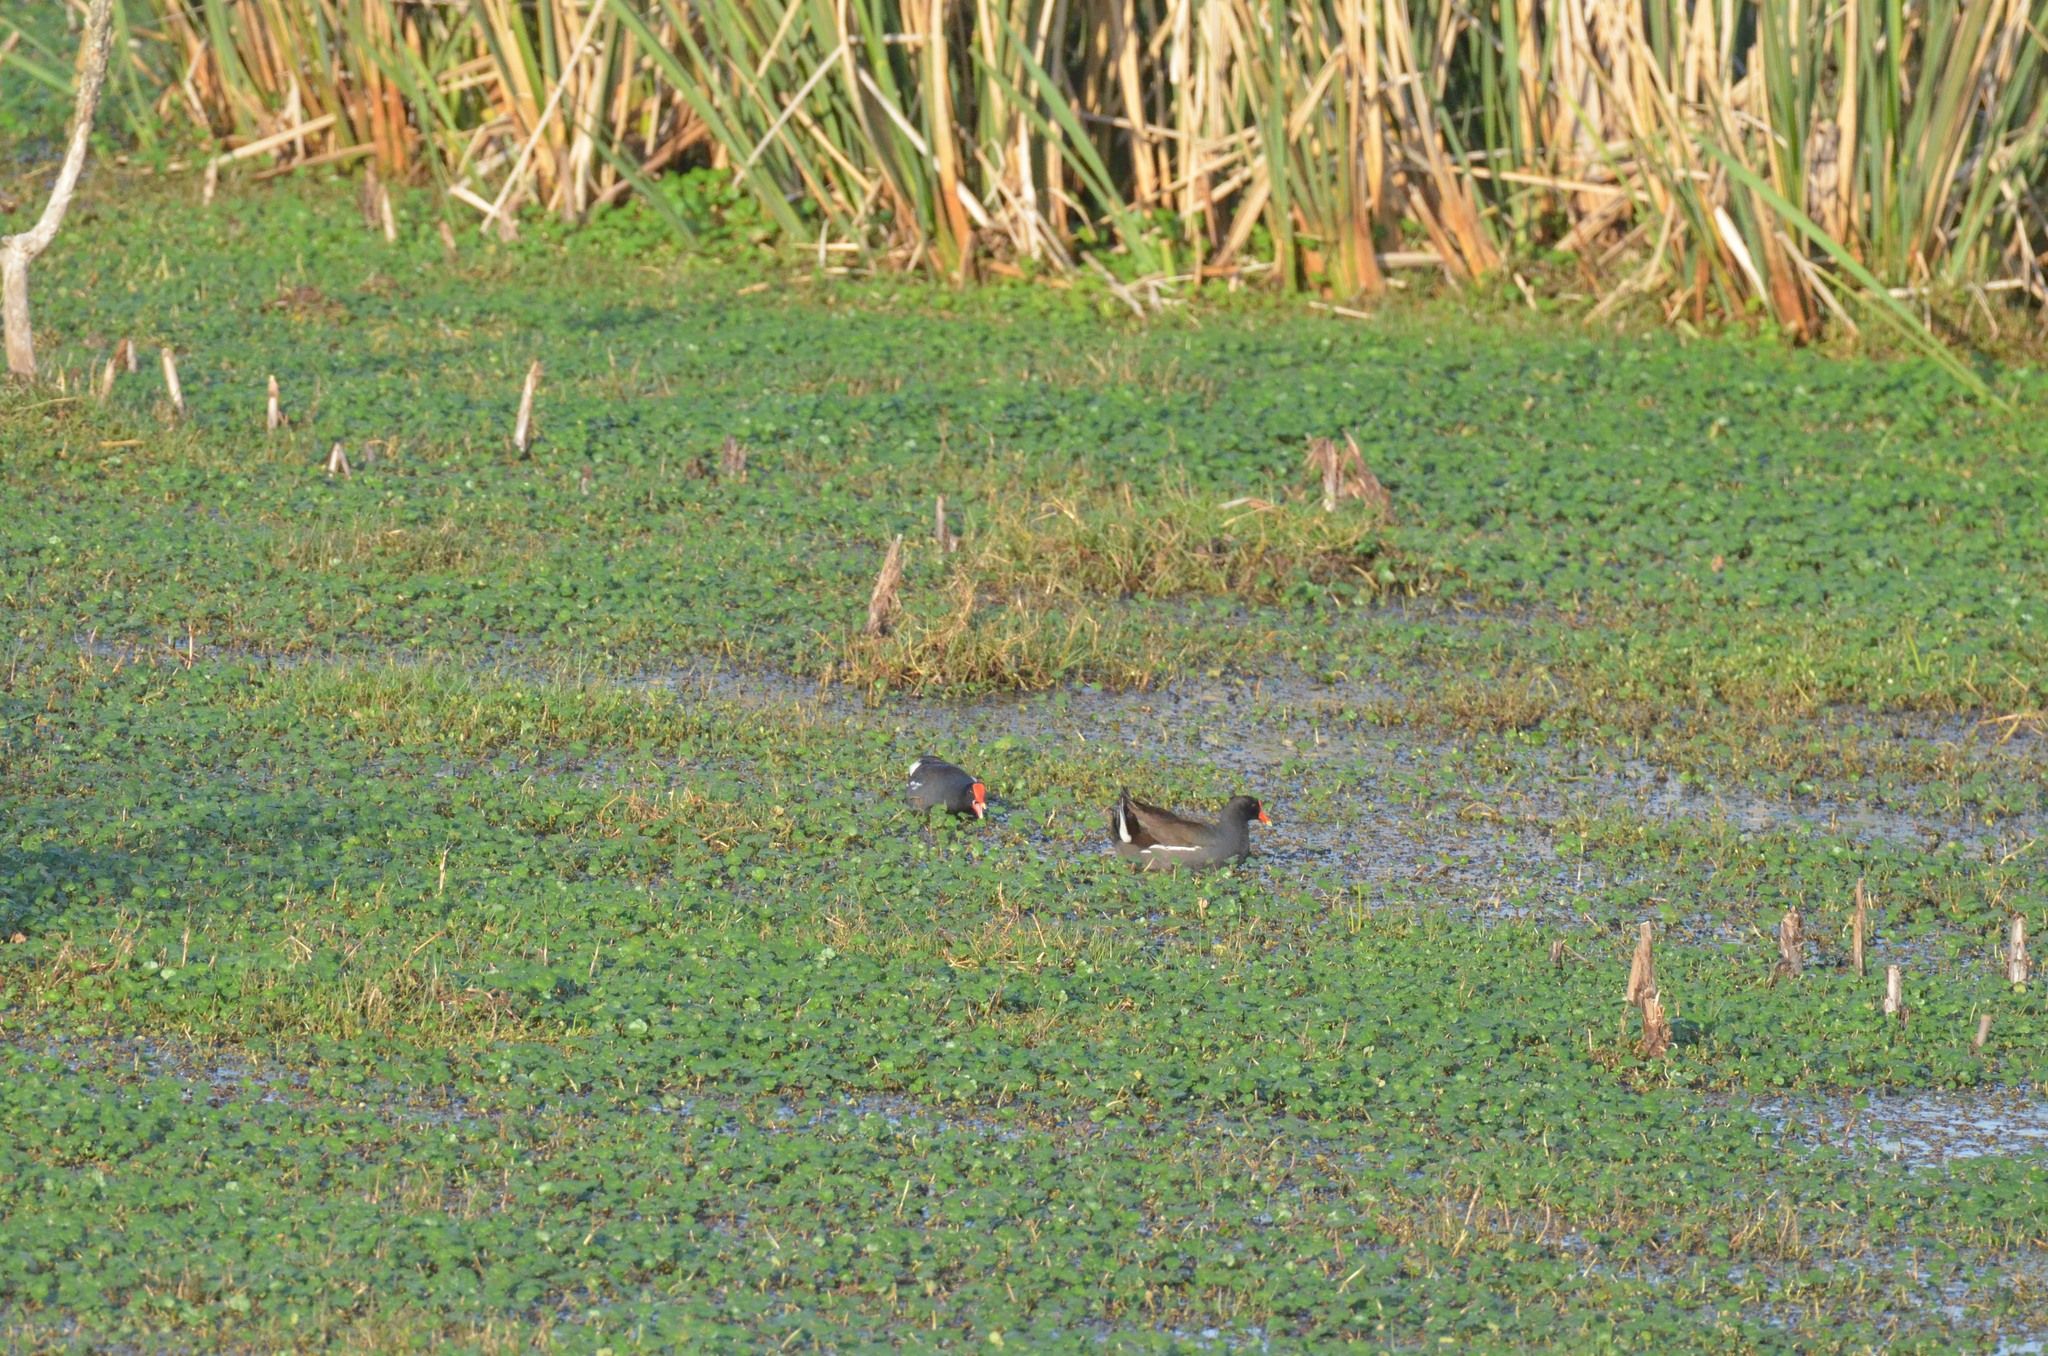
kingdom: Animalia
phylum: Chordata
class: Aves
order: Gruiformes
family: Rallidae
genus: Gallinula
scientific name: Gallinula chloropus
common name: Common moorhen
